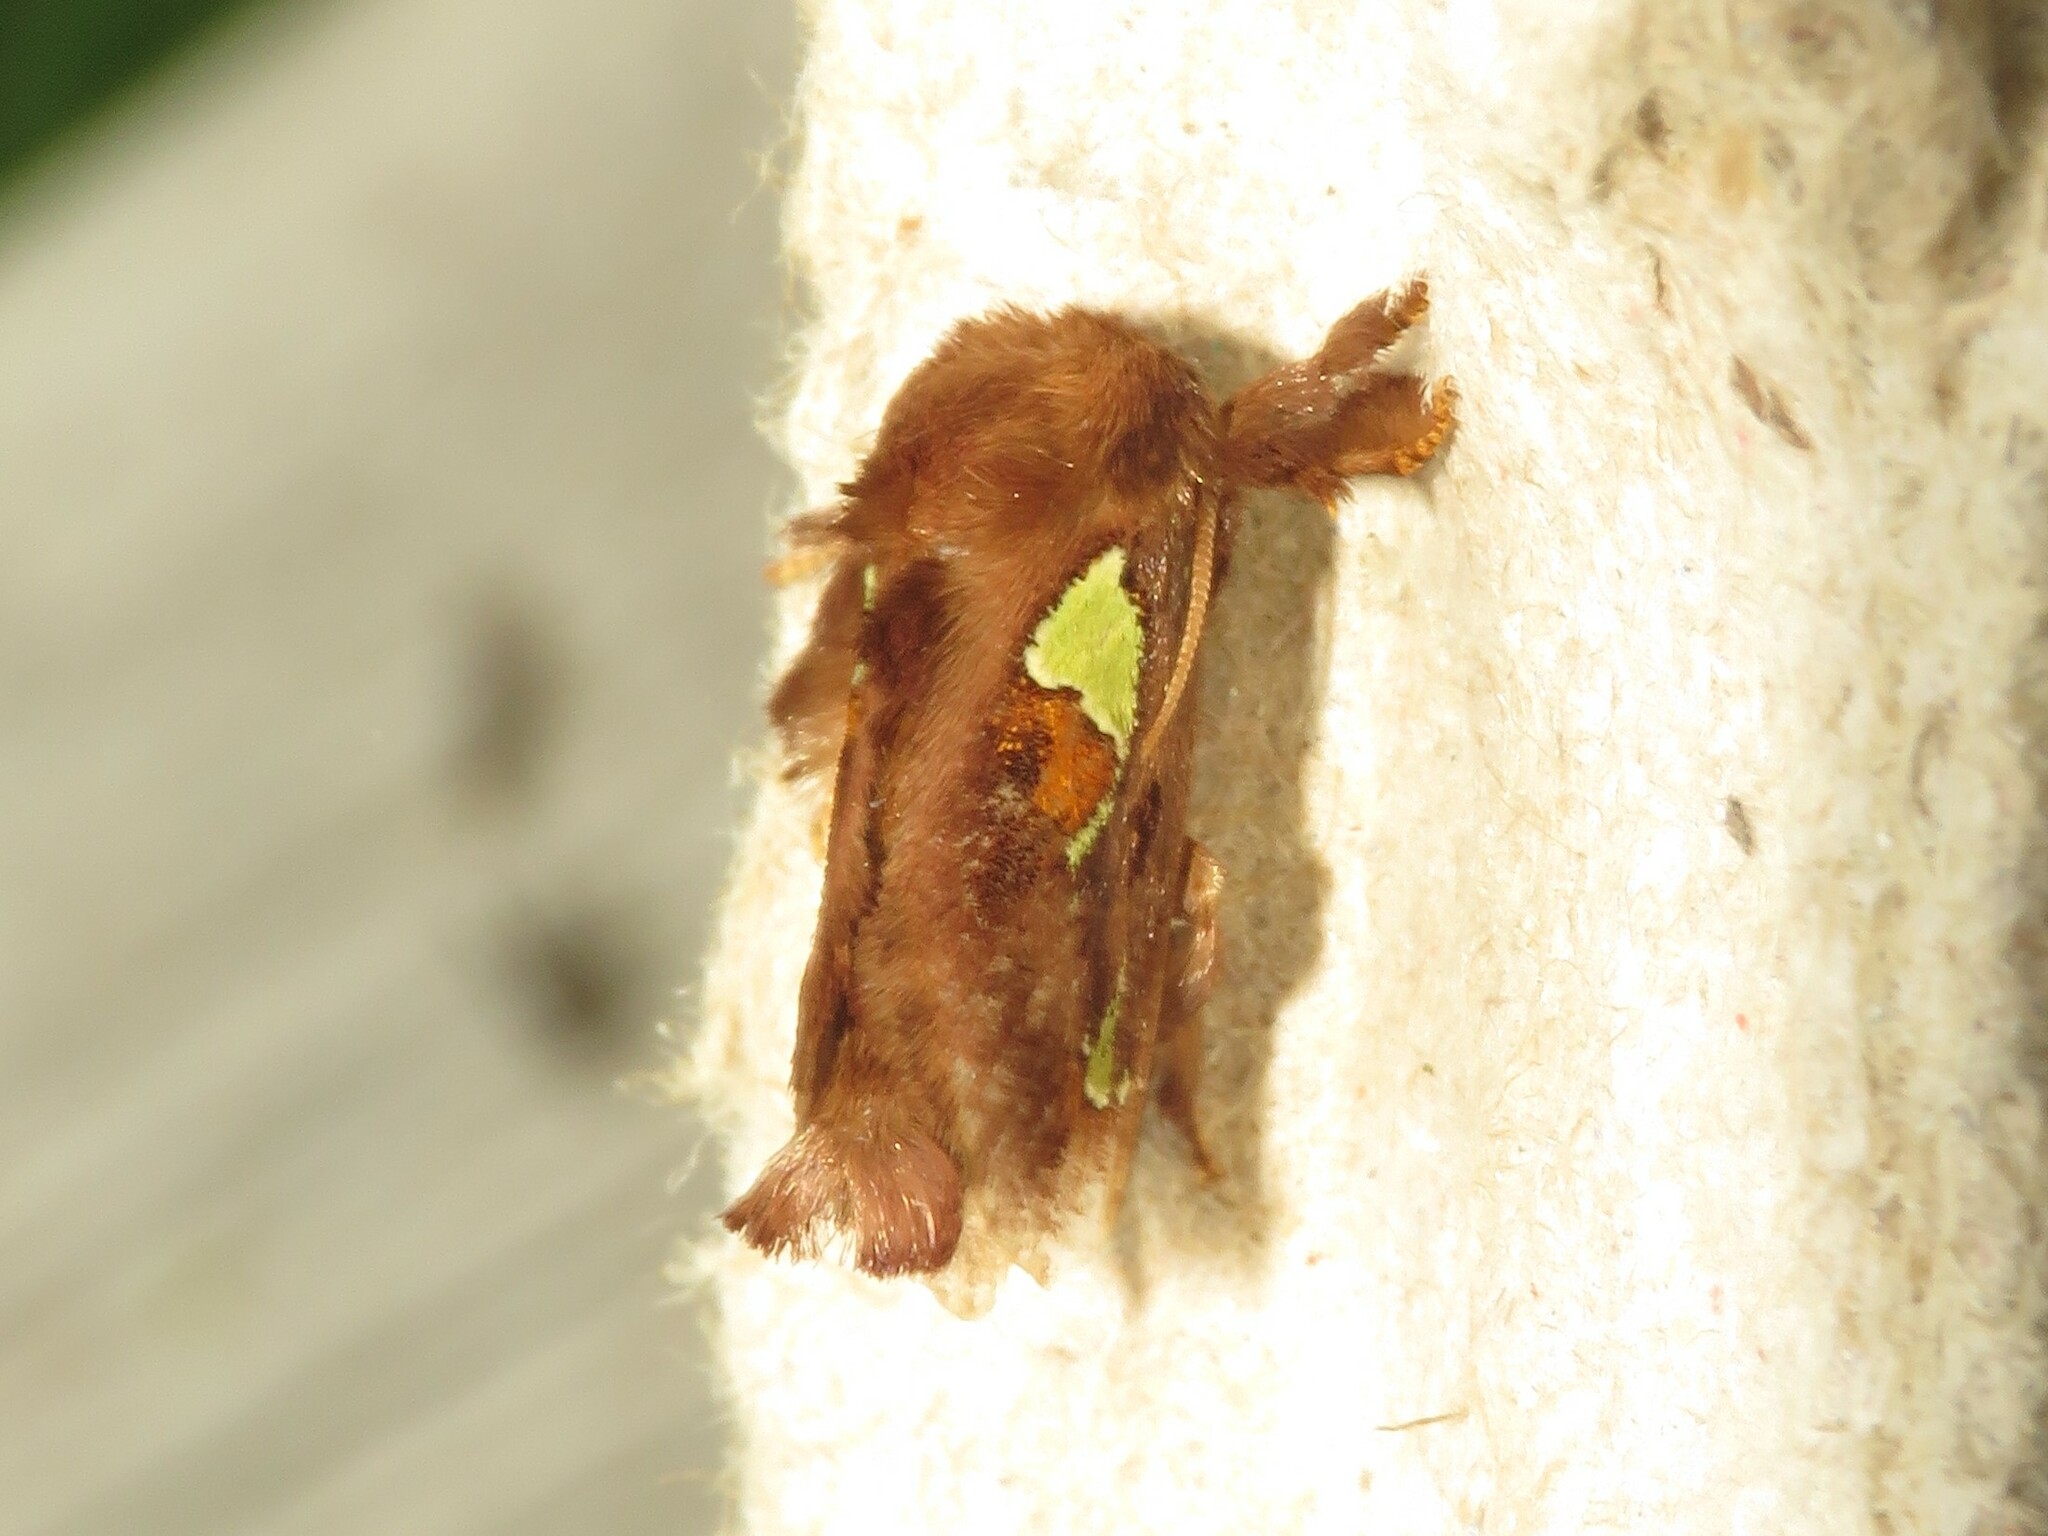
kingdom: Animalia
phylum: Arthropoda
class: Insecta
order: Lepidoptera
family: Limacodidae
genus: Euclea
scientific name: Euclea delphinii
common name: Spiny oak-slug moth
